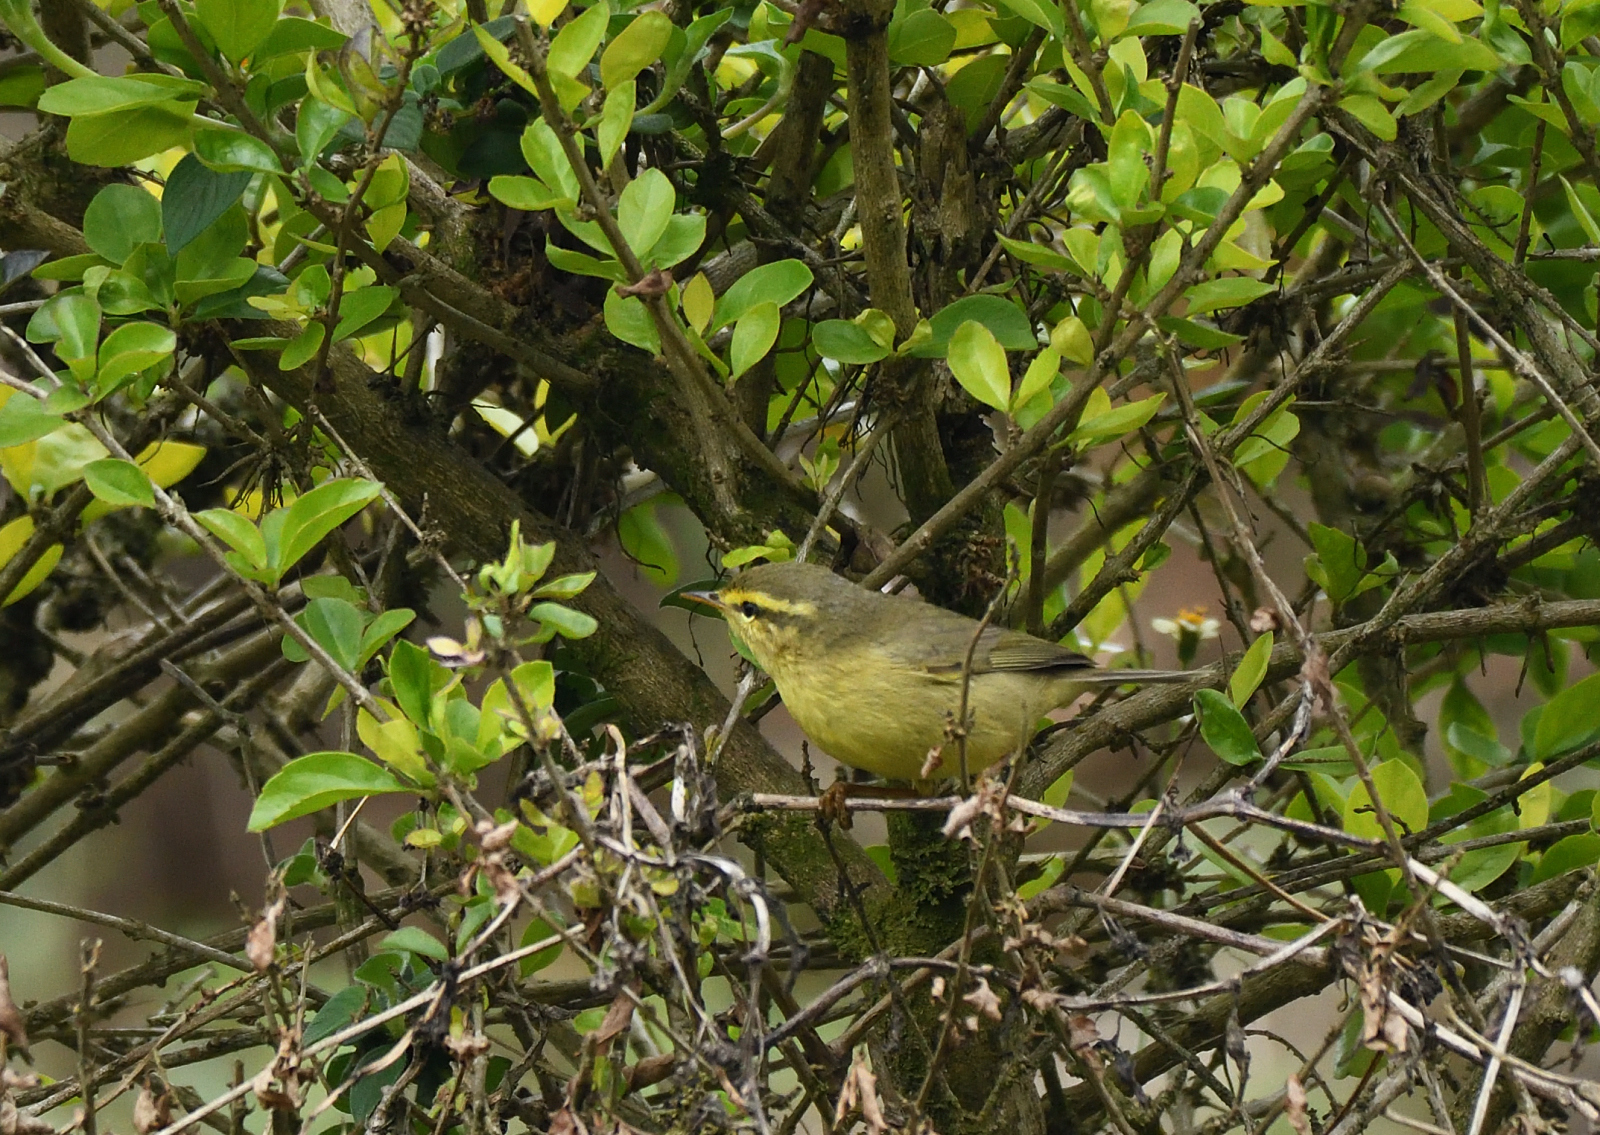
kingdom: Animalia
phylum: Chordata
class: Aves
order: Passeriformes
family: Phylloscopidae
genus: Phylloscopus
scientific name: Phylloscopus affinis
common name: Tickell's leaf warbler
